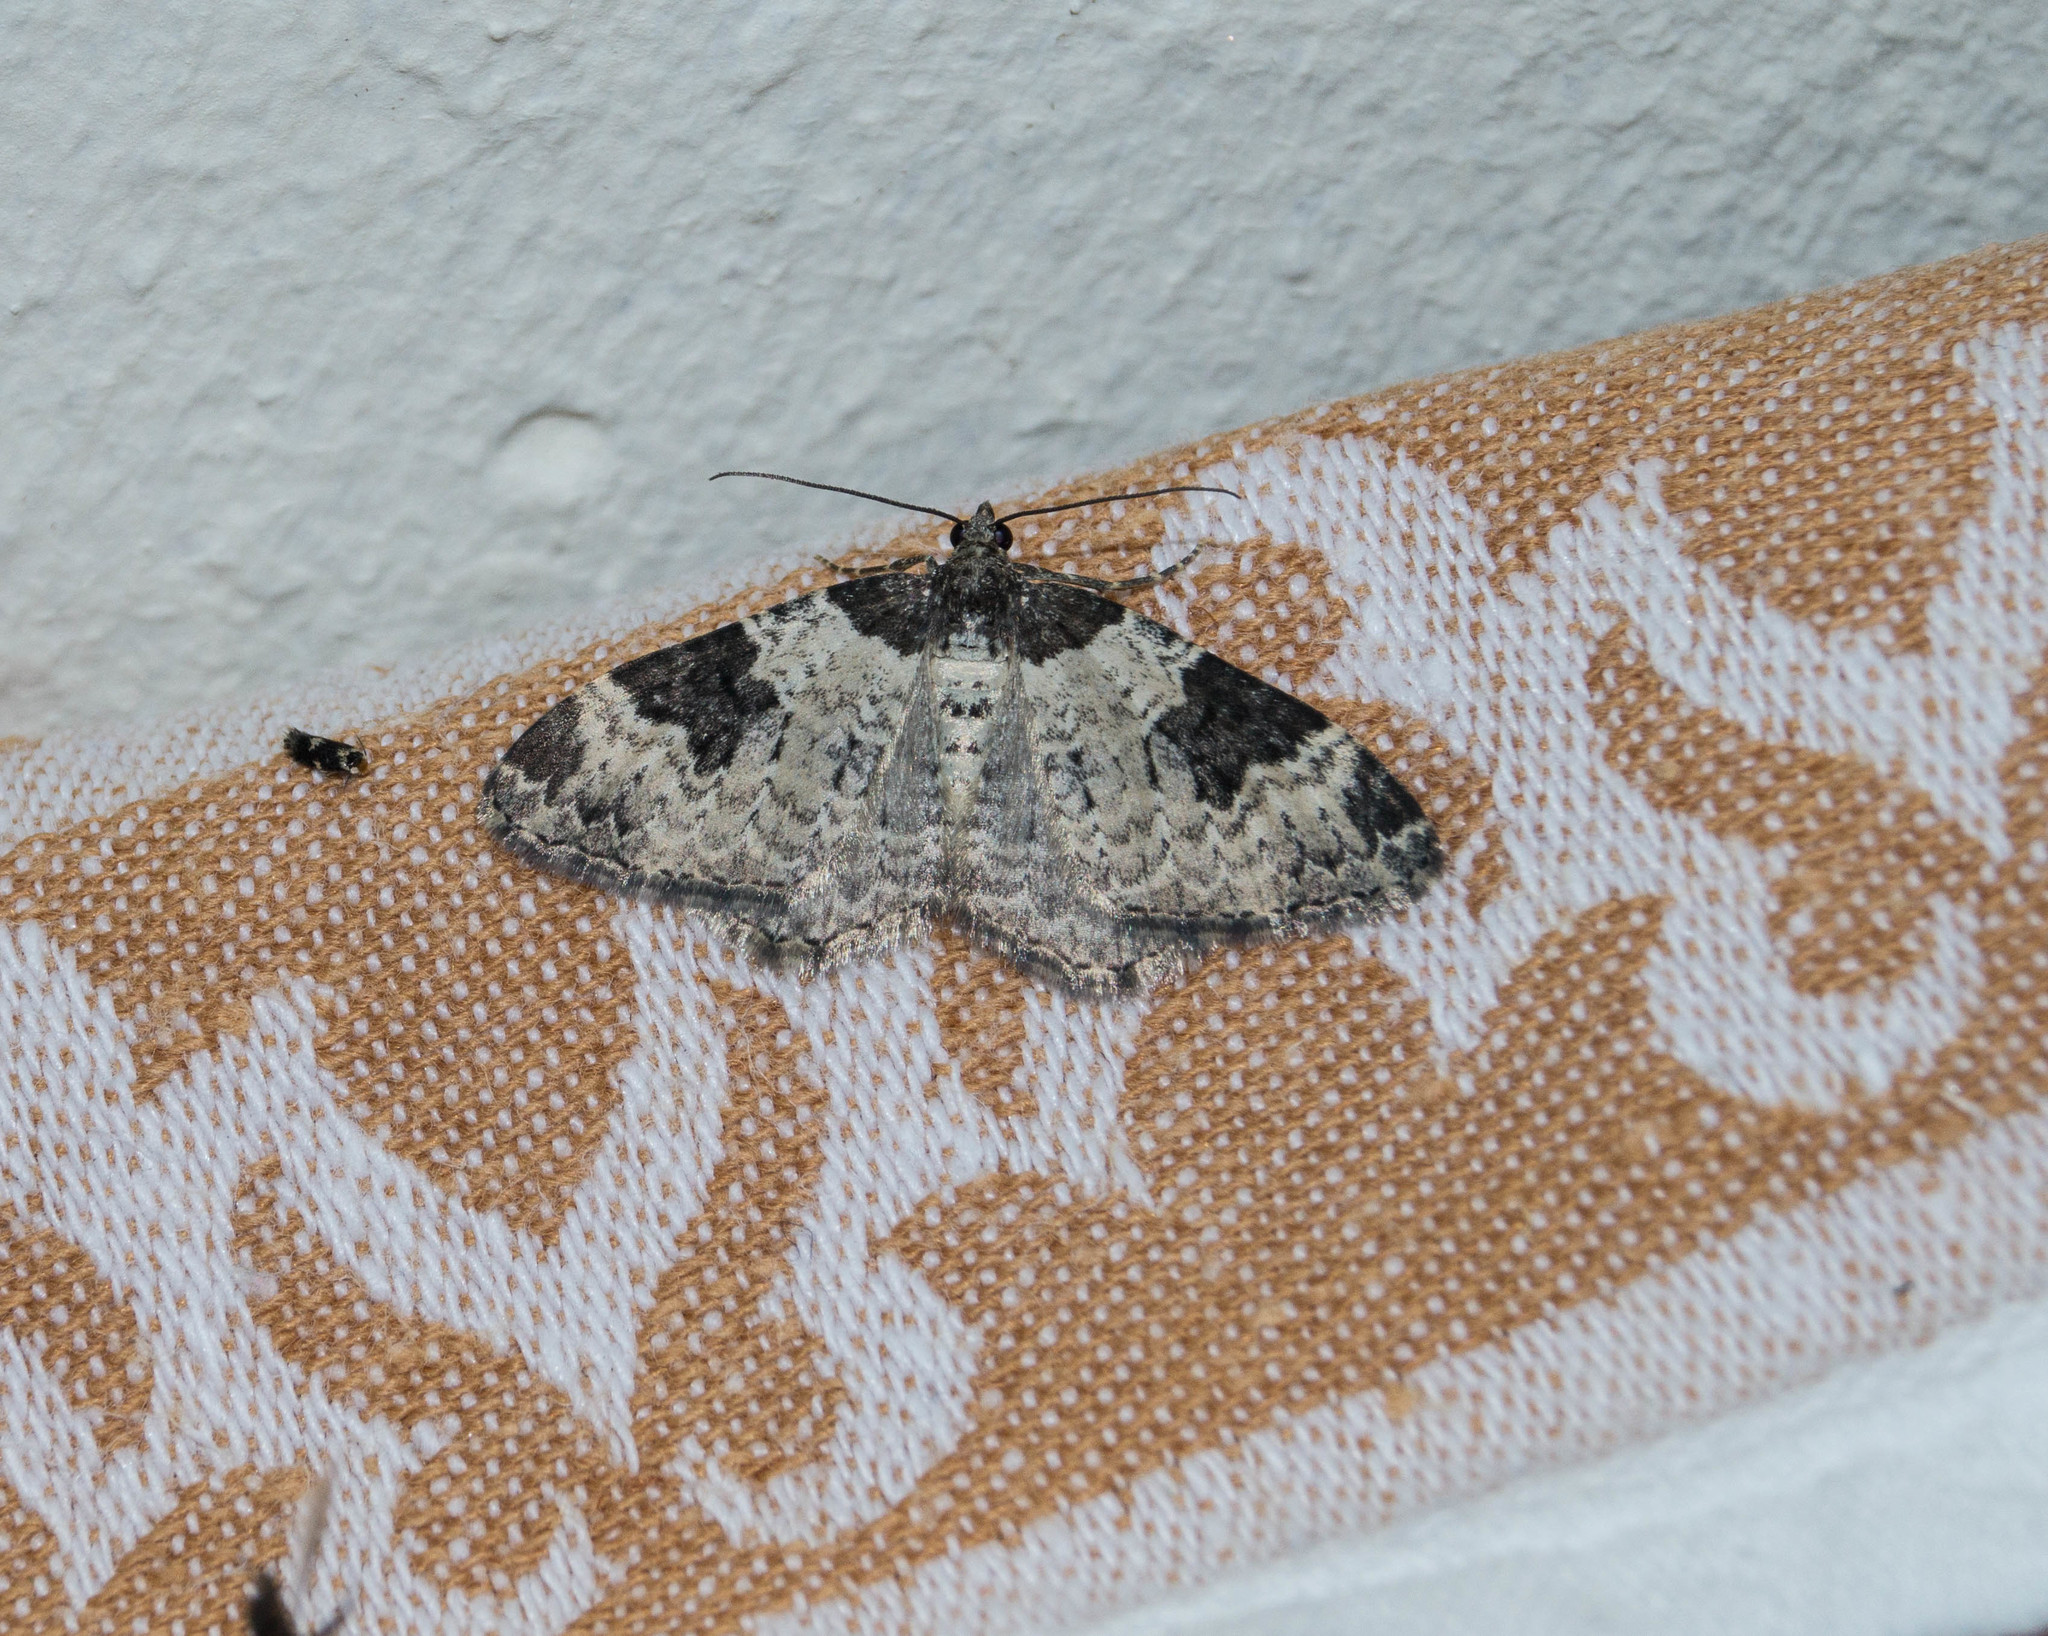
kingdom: Animalia
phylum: Arthropoda
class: Insecta
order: Lepidoptera
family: Geometridae
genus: Xanthorhoe
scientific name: Xanthorhoe fluctuata
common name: Garden carpet
